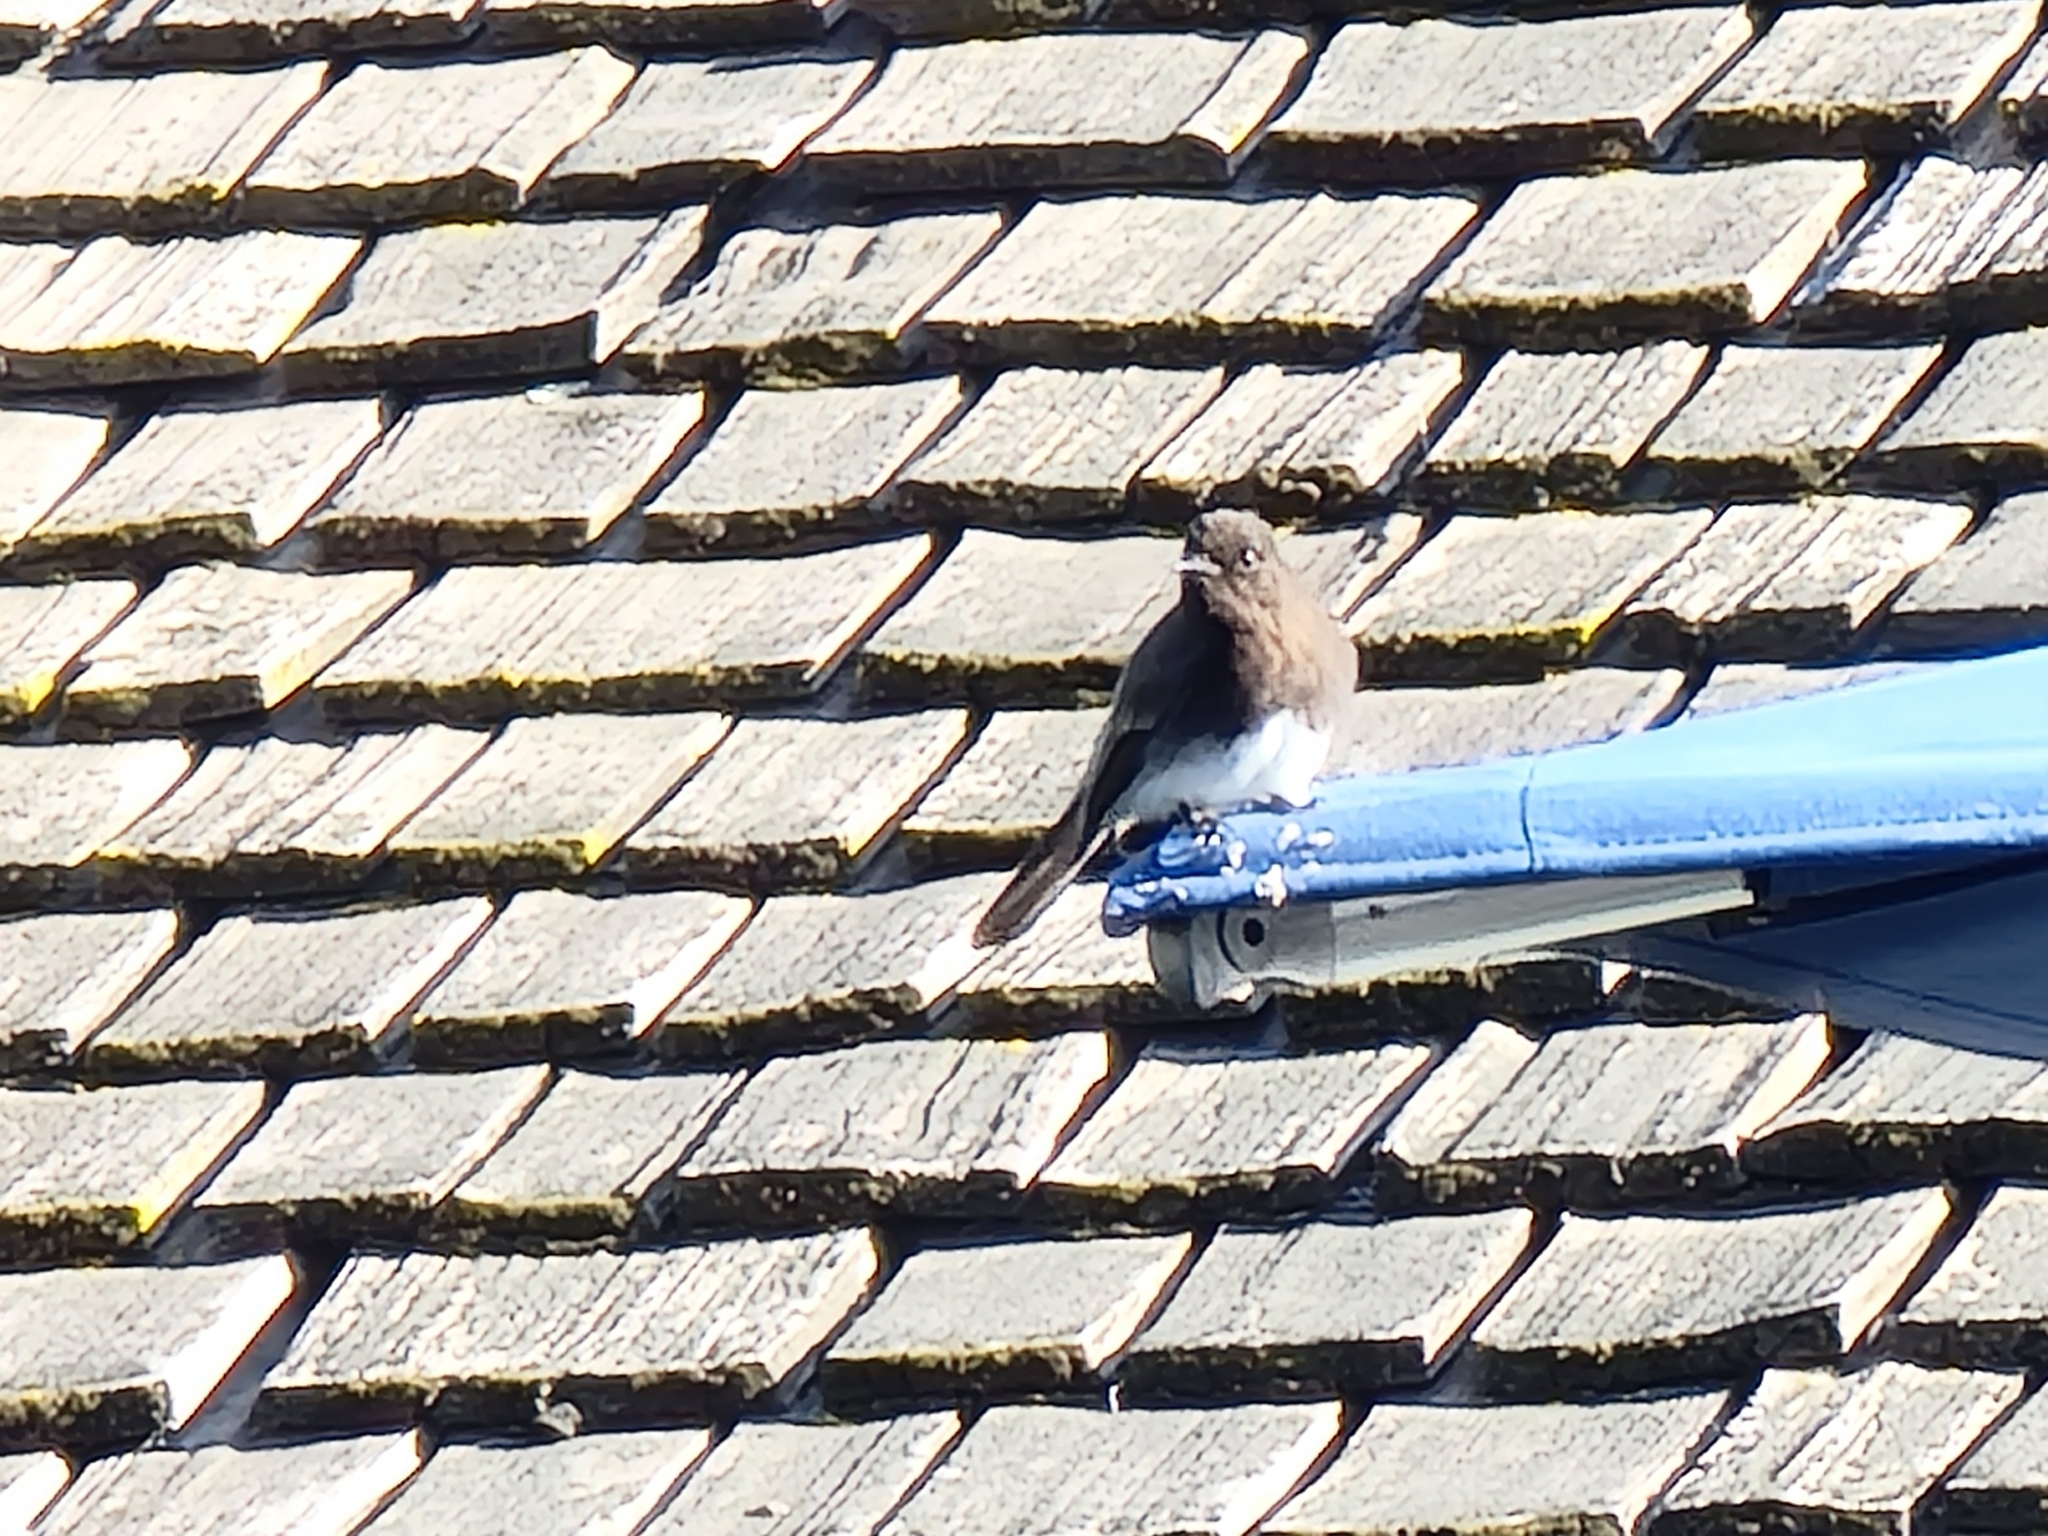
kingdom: Animalia
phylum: Chordata
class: Aves
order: Passeriformes
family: Tyrannidae
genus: Sayornis
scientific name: Sayornis nigricans
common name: Black phoebe
